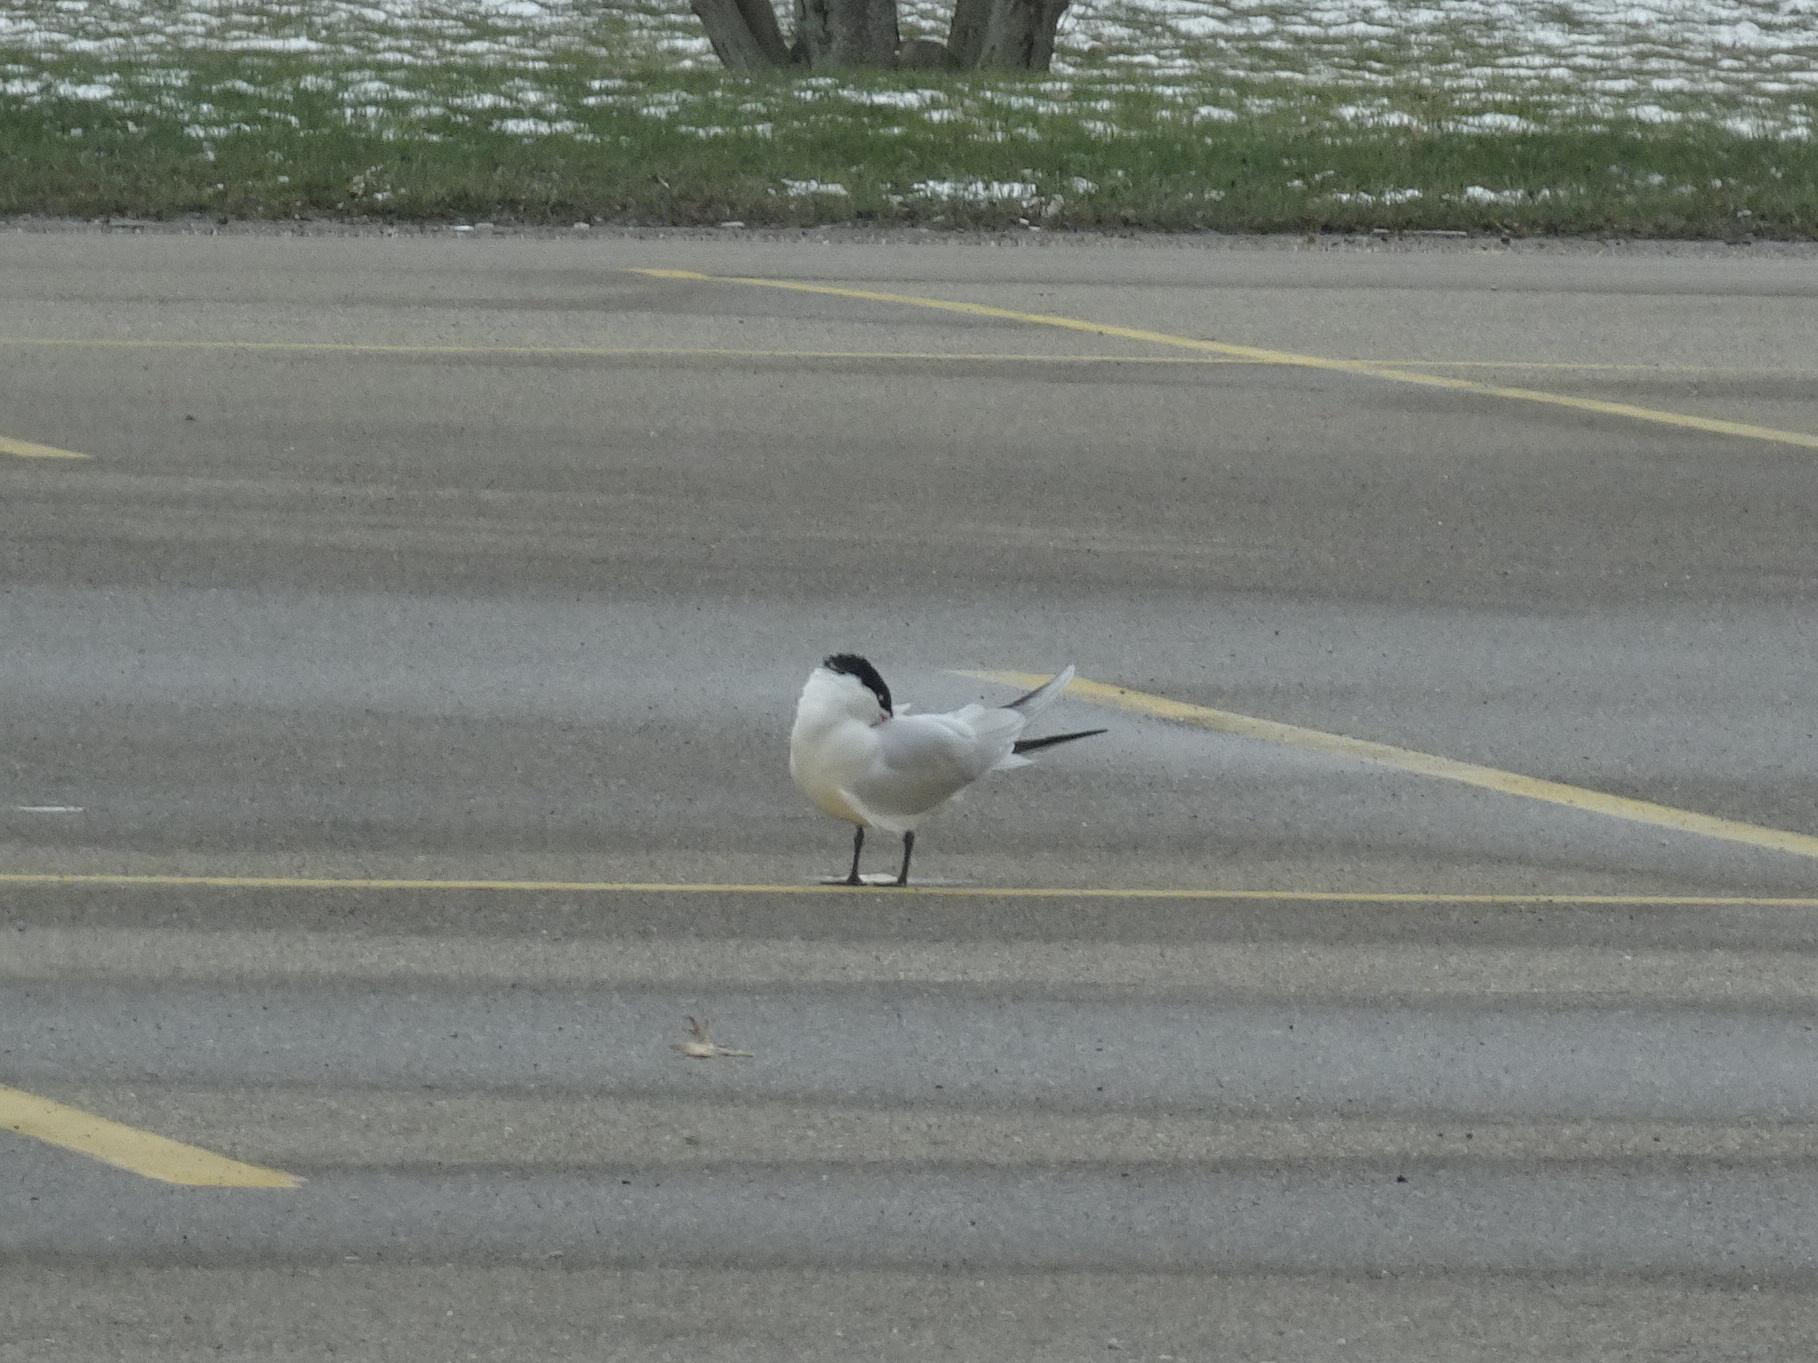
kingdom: Animalia
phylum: Chordata
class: Aves
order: Charadriiformes
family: Laridae
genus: Hydroprogne
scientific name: Hydroprogne caspia
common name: Caspian tern
